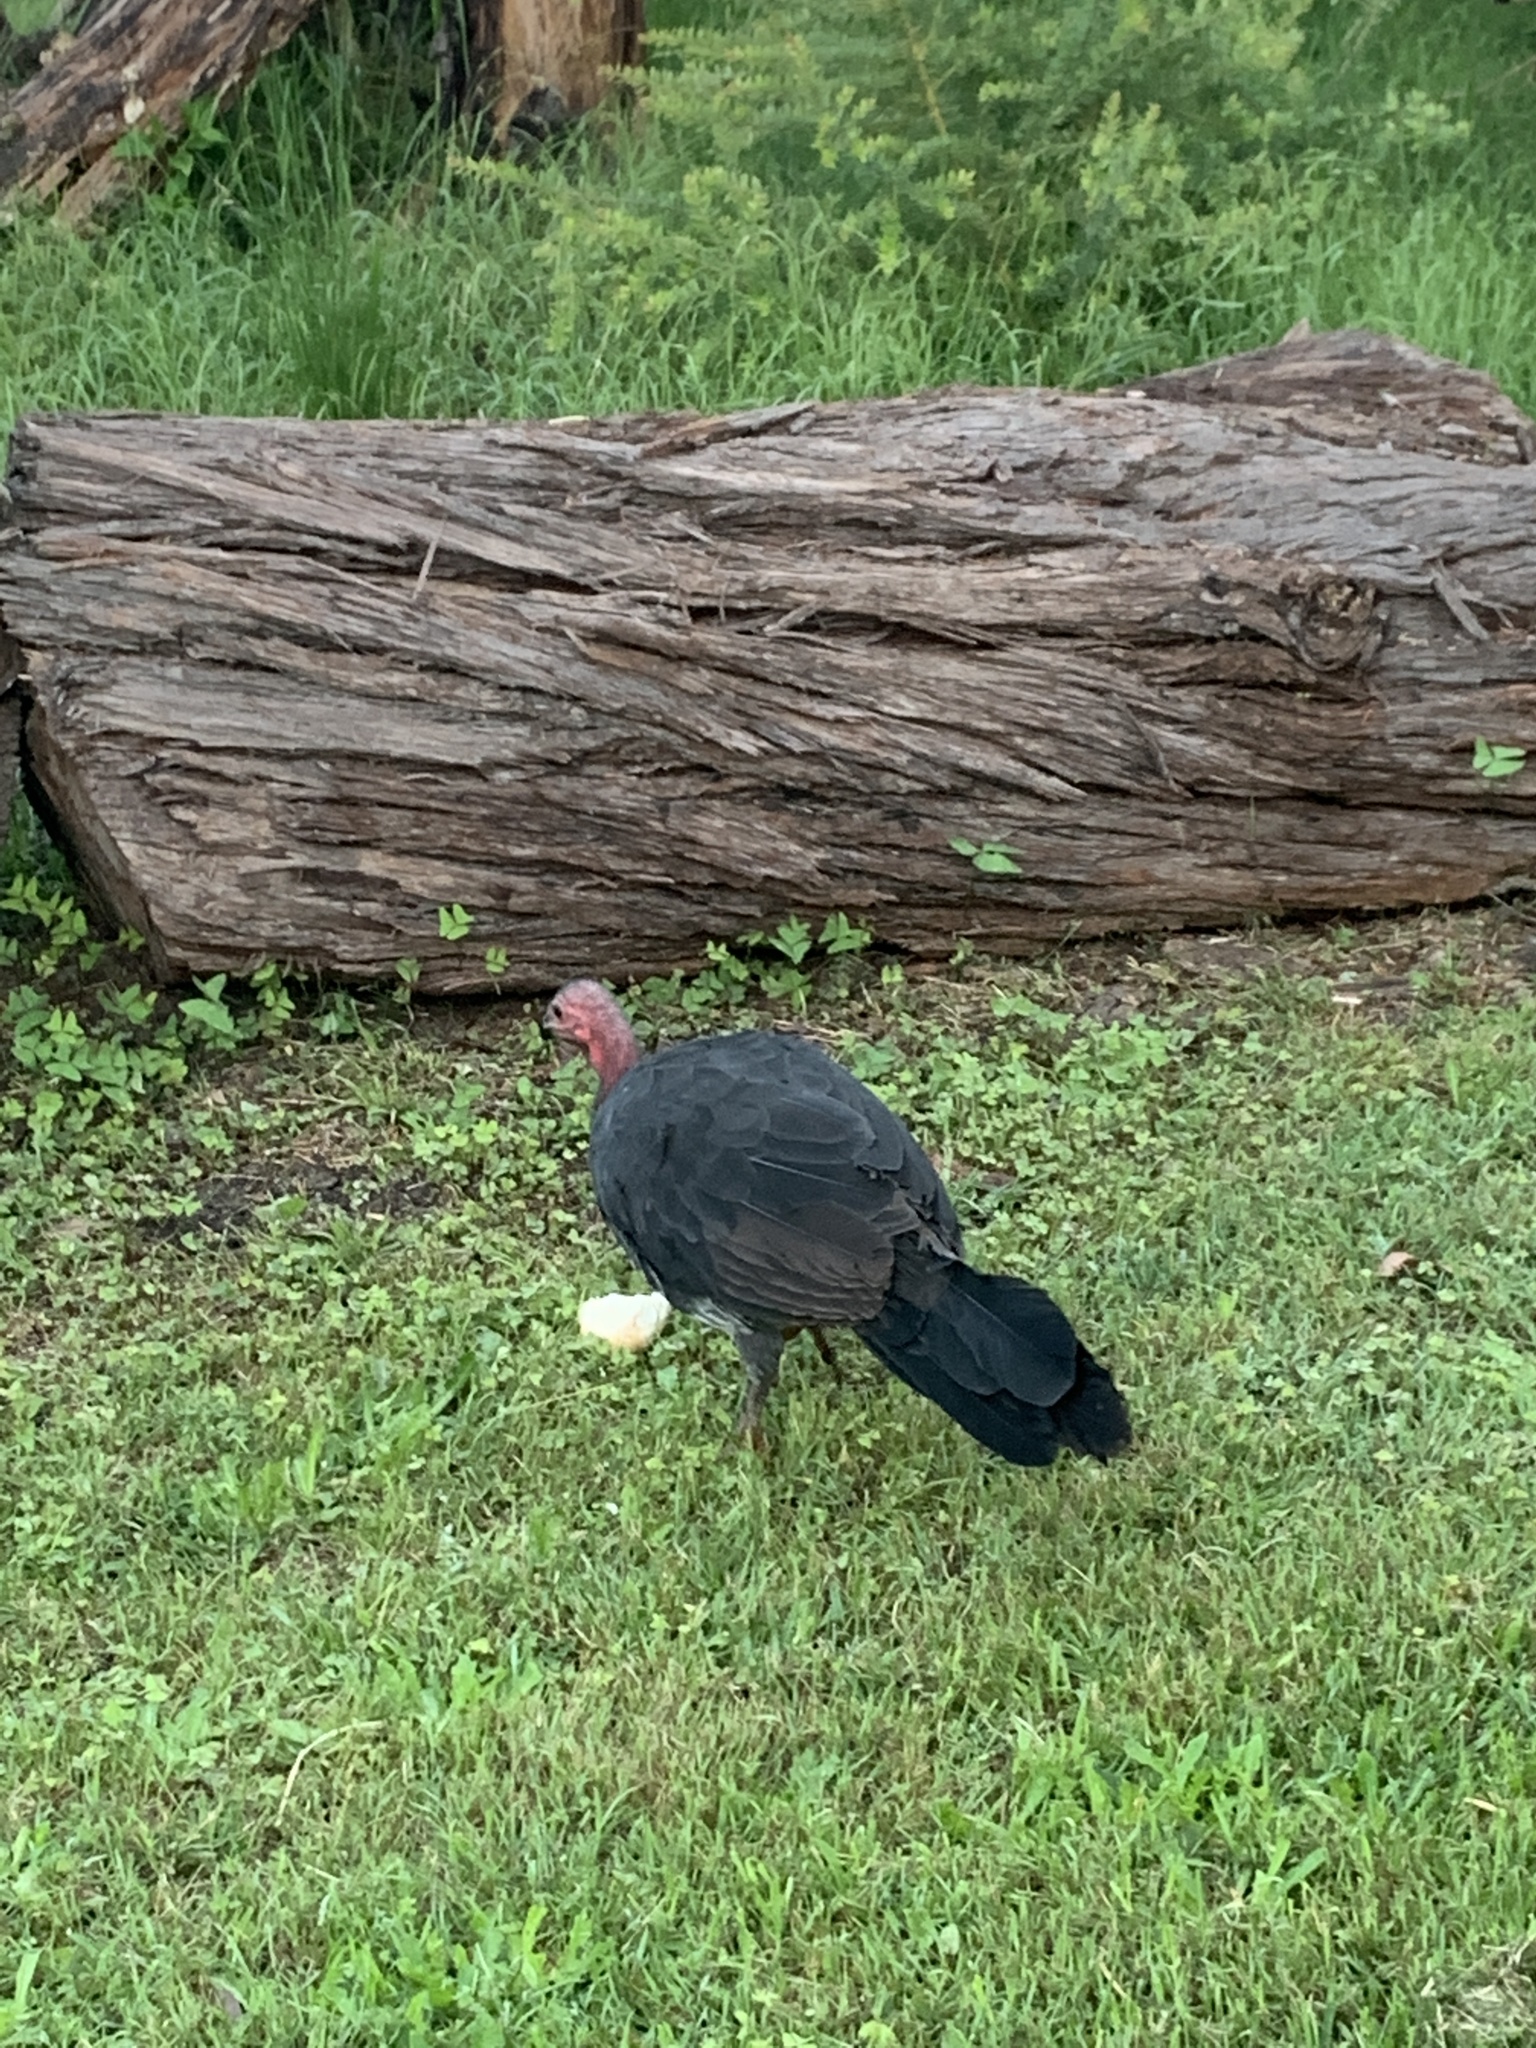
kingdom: Animalia
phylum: Chordata
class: Aves
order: Galliformes
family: Megapodiidae
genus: Alectura
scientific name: Alectura lathami
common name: Australian brushturkey
